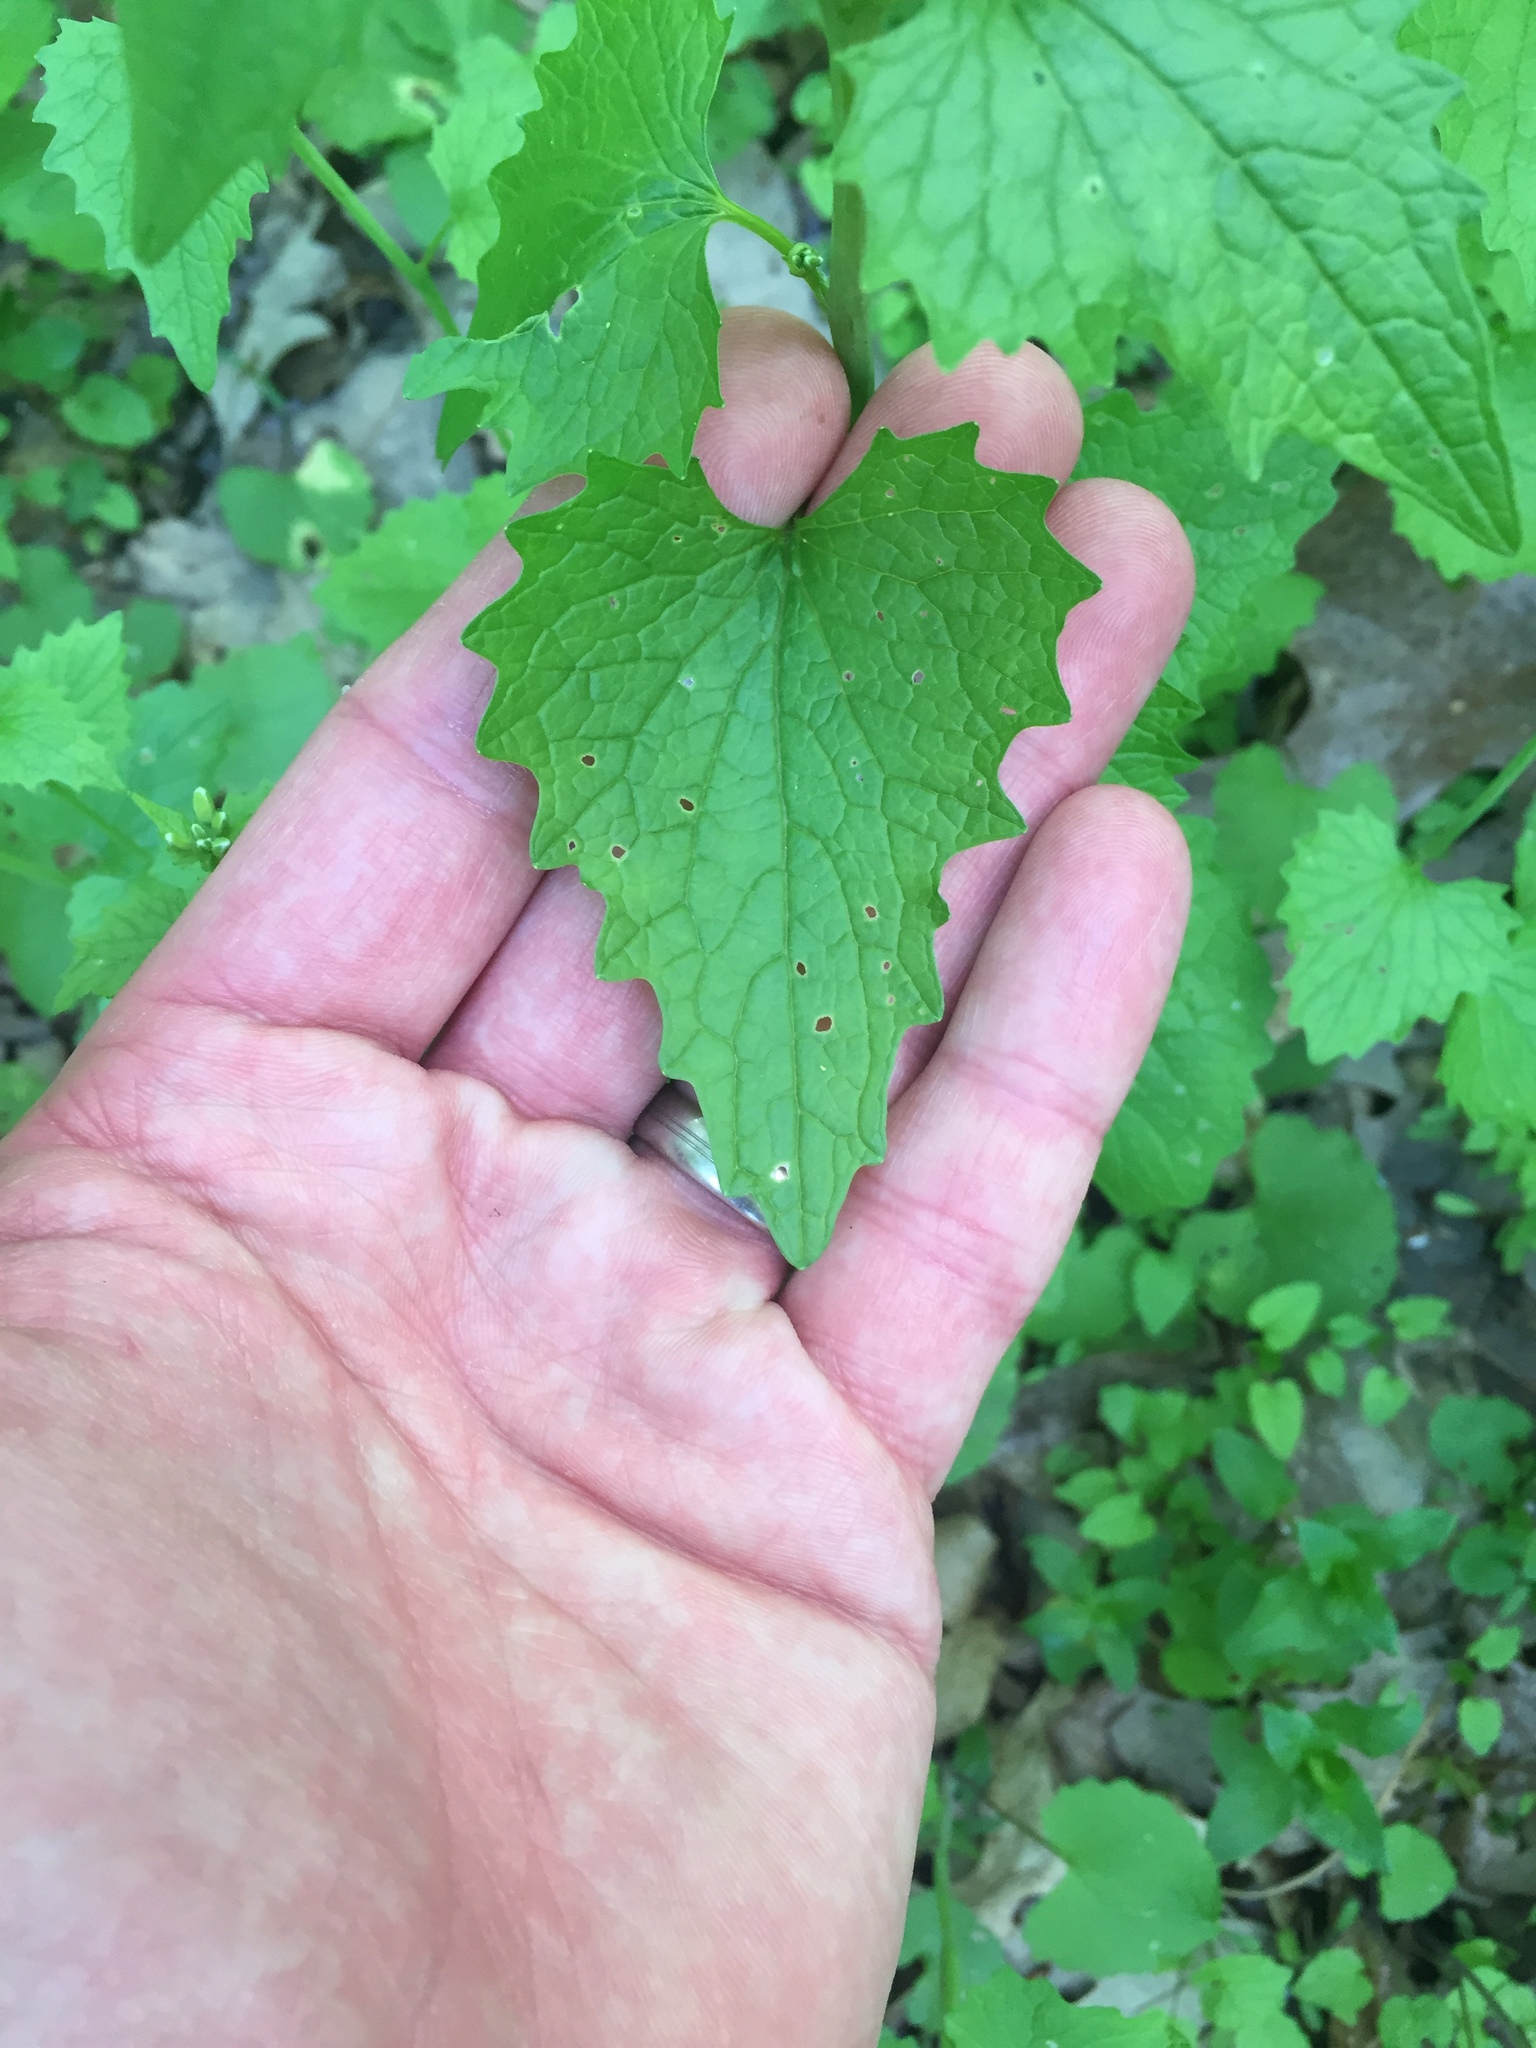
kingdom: Plantae
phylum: Tracheophyta
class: Magnoliopsida
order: Brassicales
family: Brassicaceae
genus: Alliaria
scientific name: Alliaria petiolata
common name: Garlic mustard
